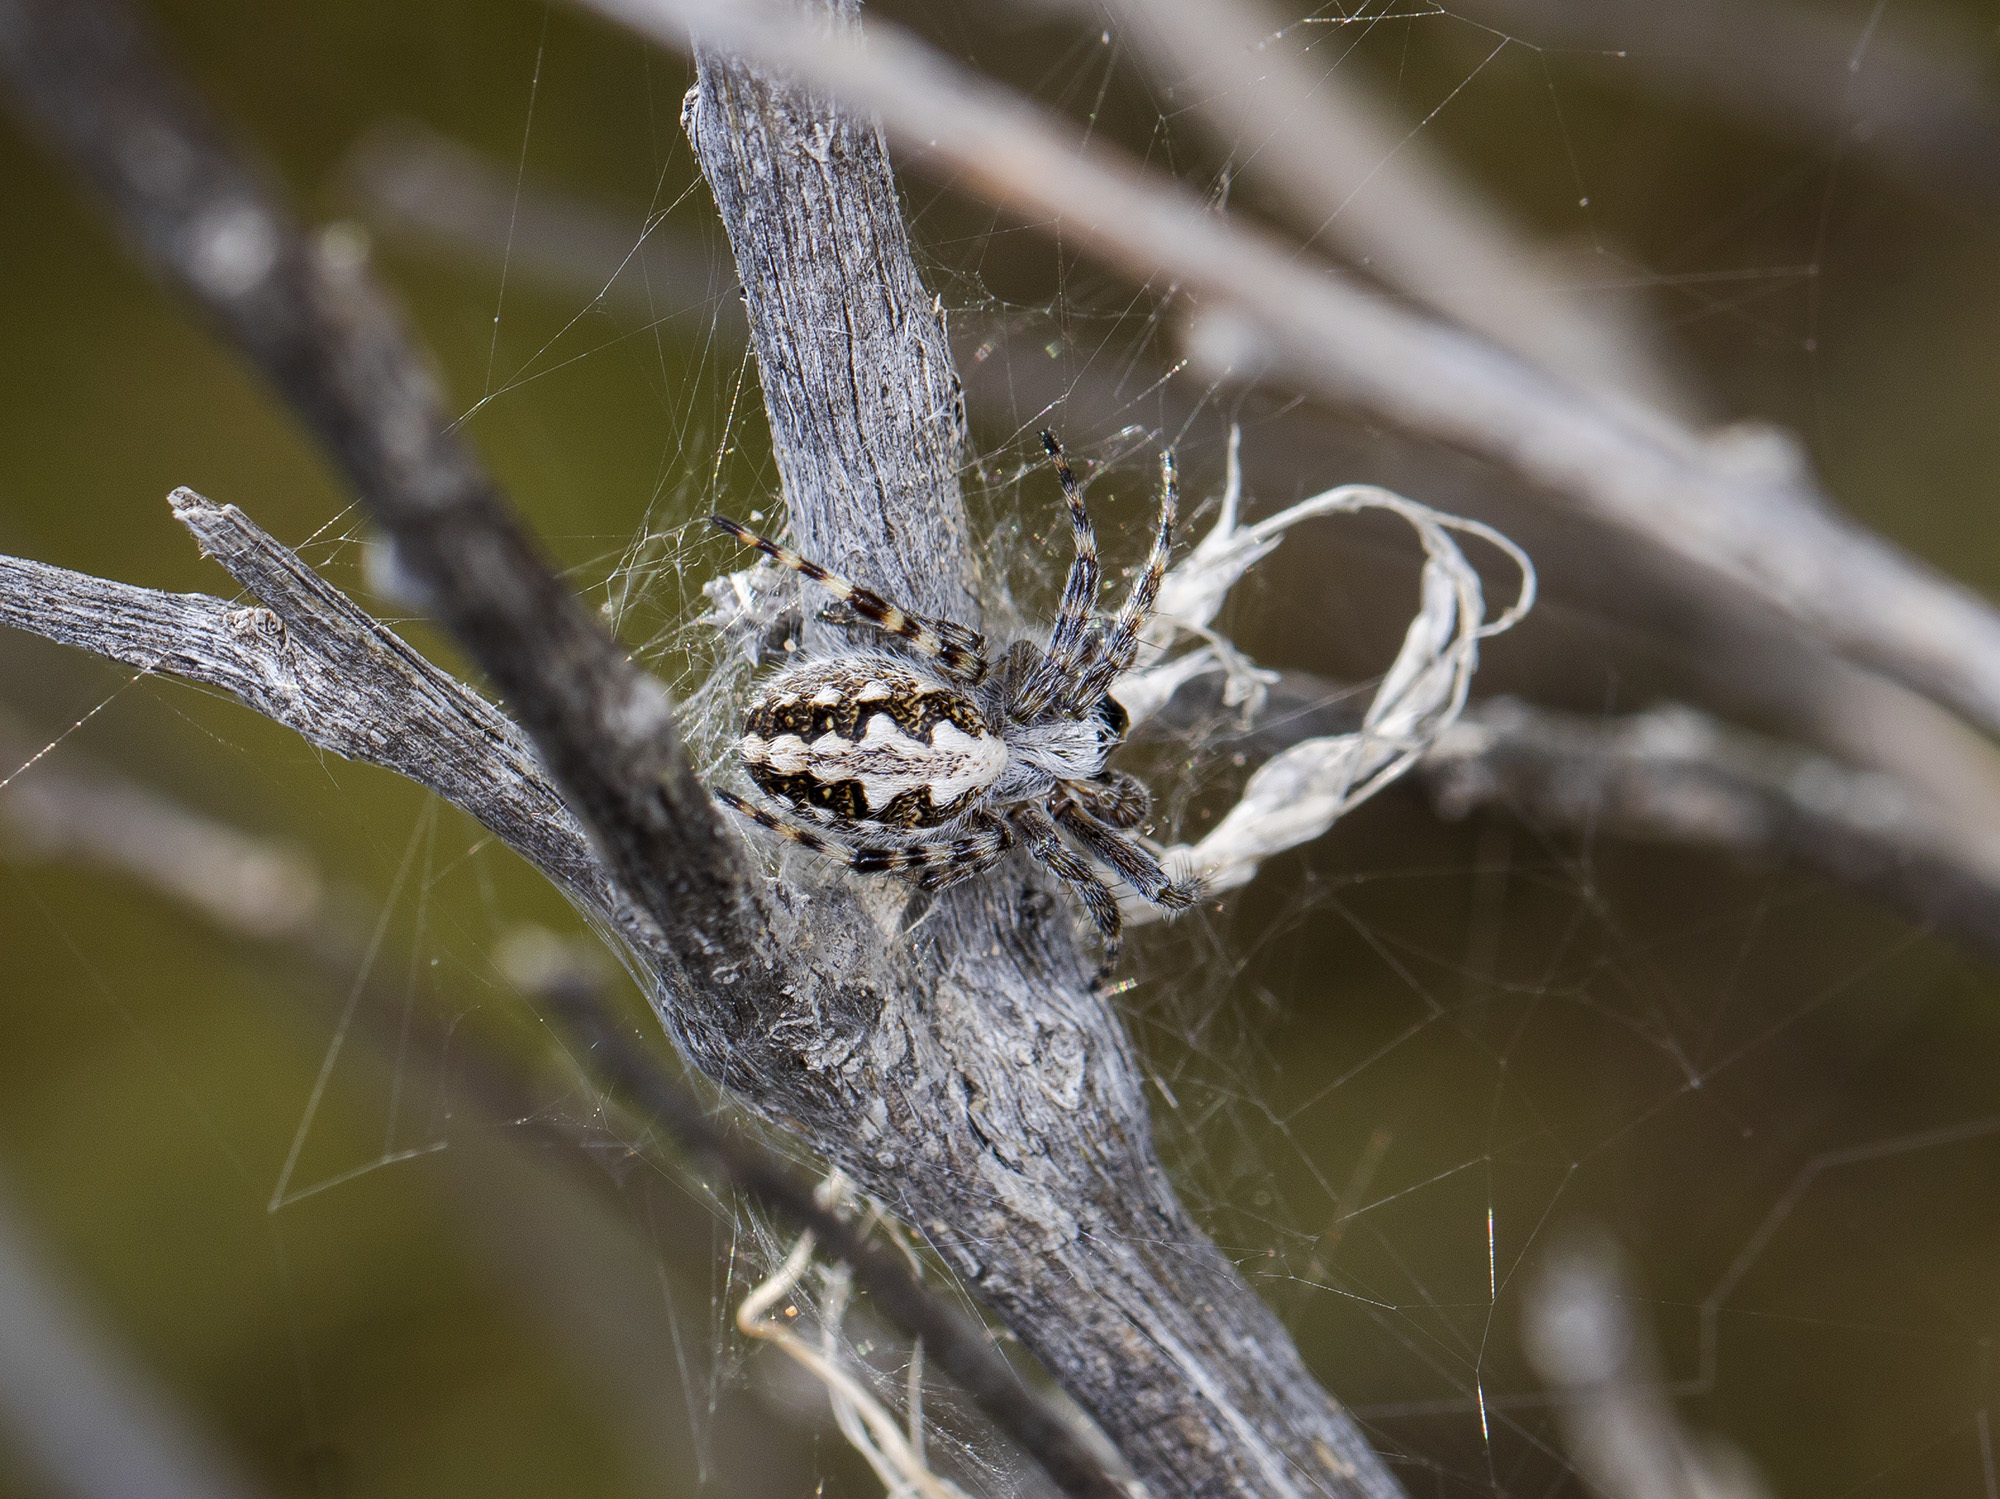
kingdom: Animalia
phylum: Arthropoda
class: Arachnida
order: Araneae
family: Araneidae
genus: Aculepeira
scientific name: Aculepeira armida
